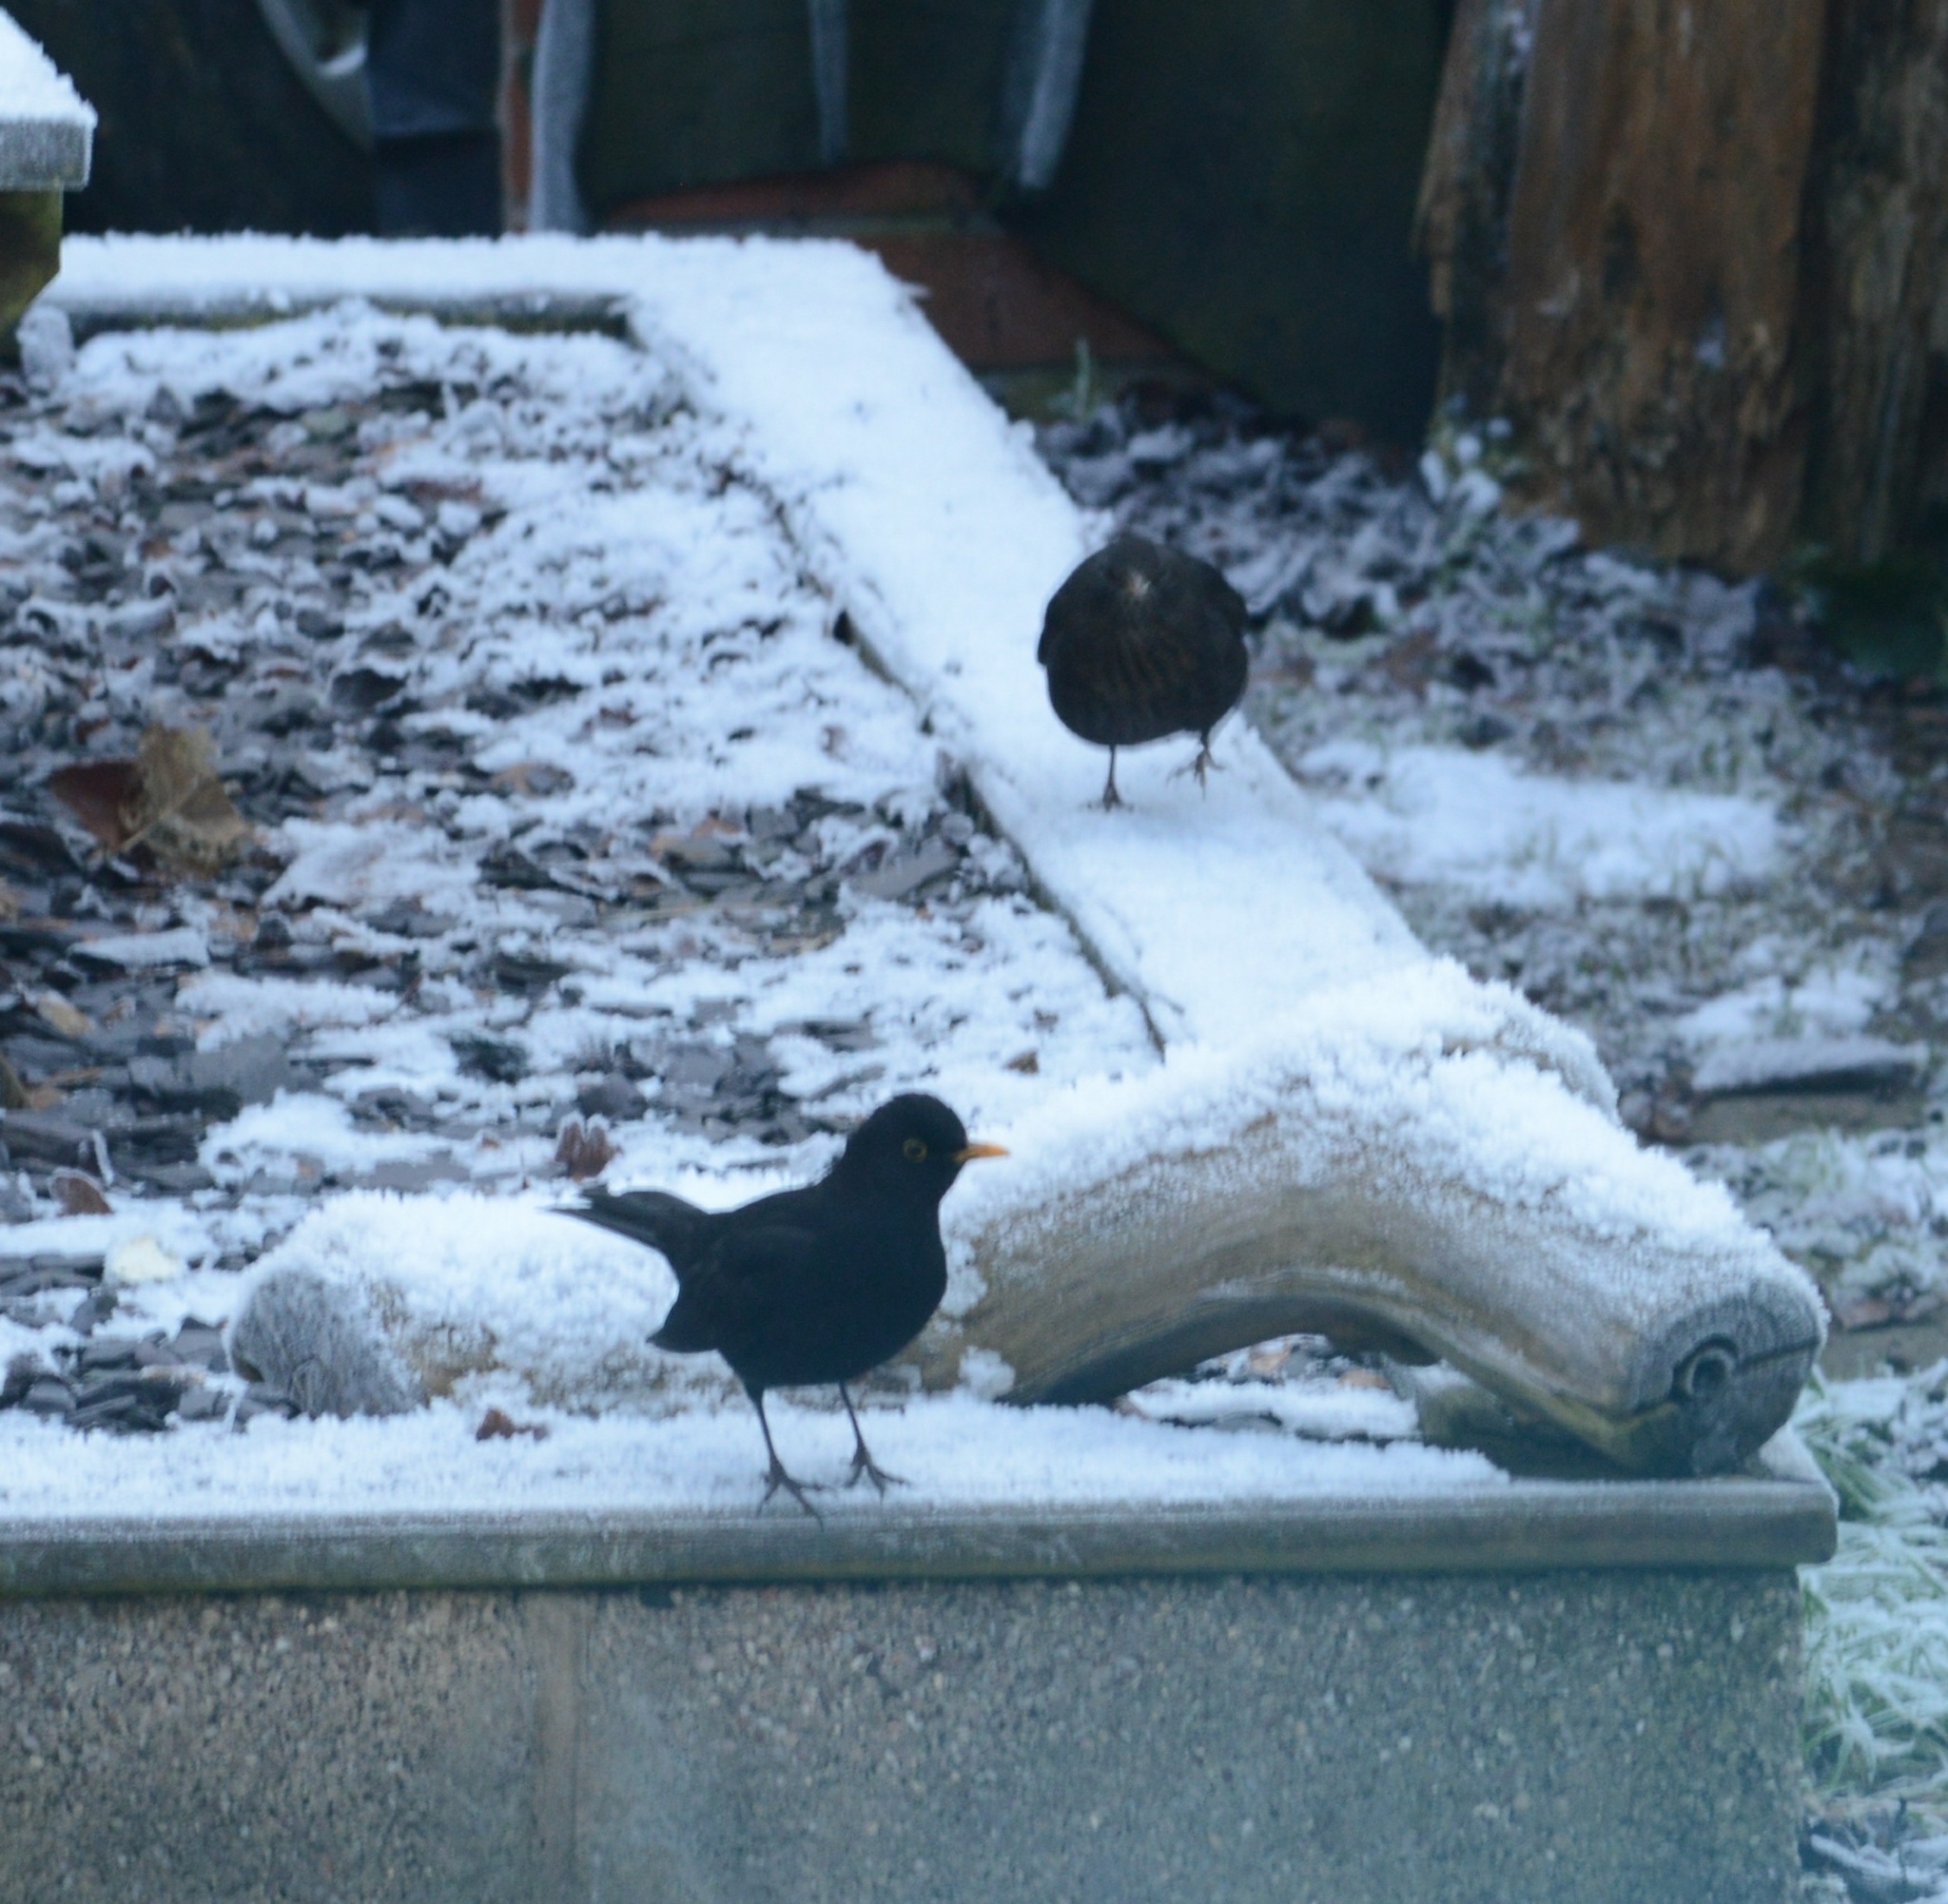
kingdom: Animalia
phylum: Chordata
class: Aves
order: Passeriformes
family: Turdidae
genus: Turdus
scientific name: Turdus merula
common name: Common blackbird
